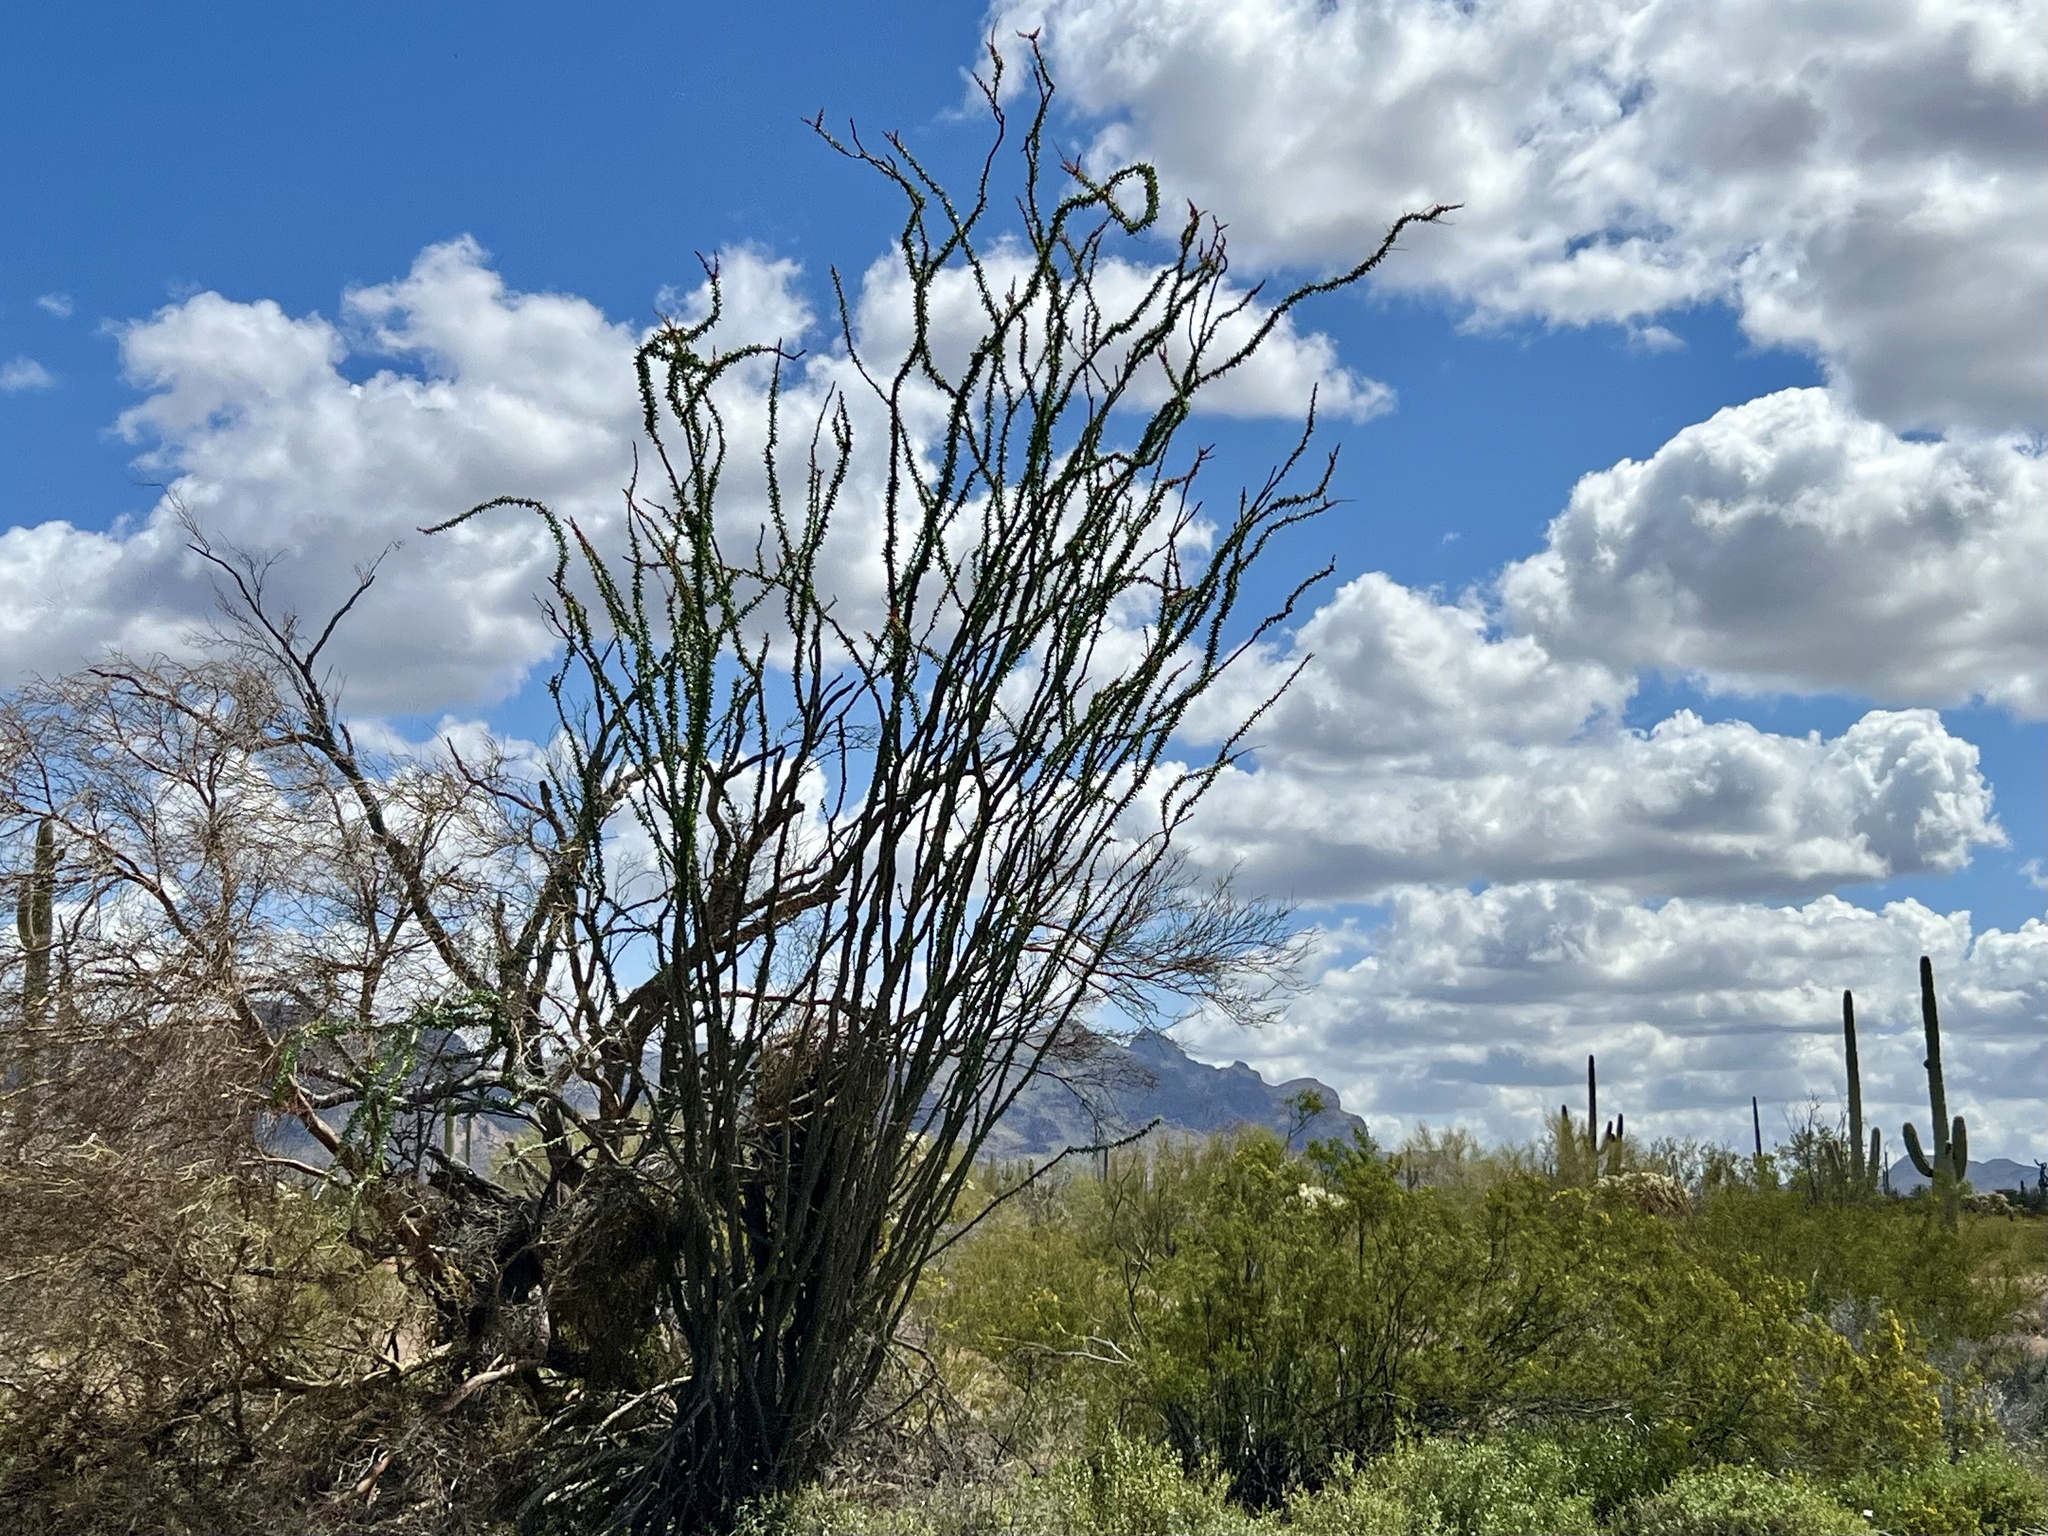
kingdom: Plantae
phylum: Tracheophyta
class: Magnoliopsida
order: Ericales
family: Fouquieriaceae
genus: Fouquieria
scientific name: Fouquieria splendens
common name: Vine-cactus
